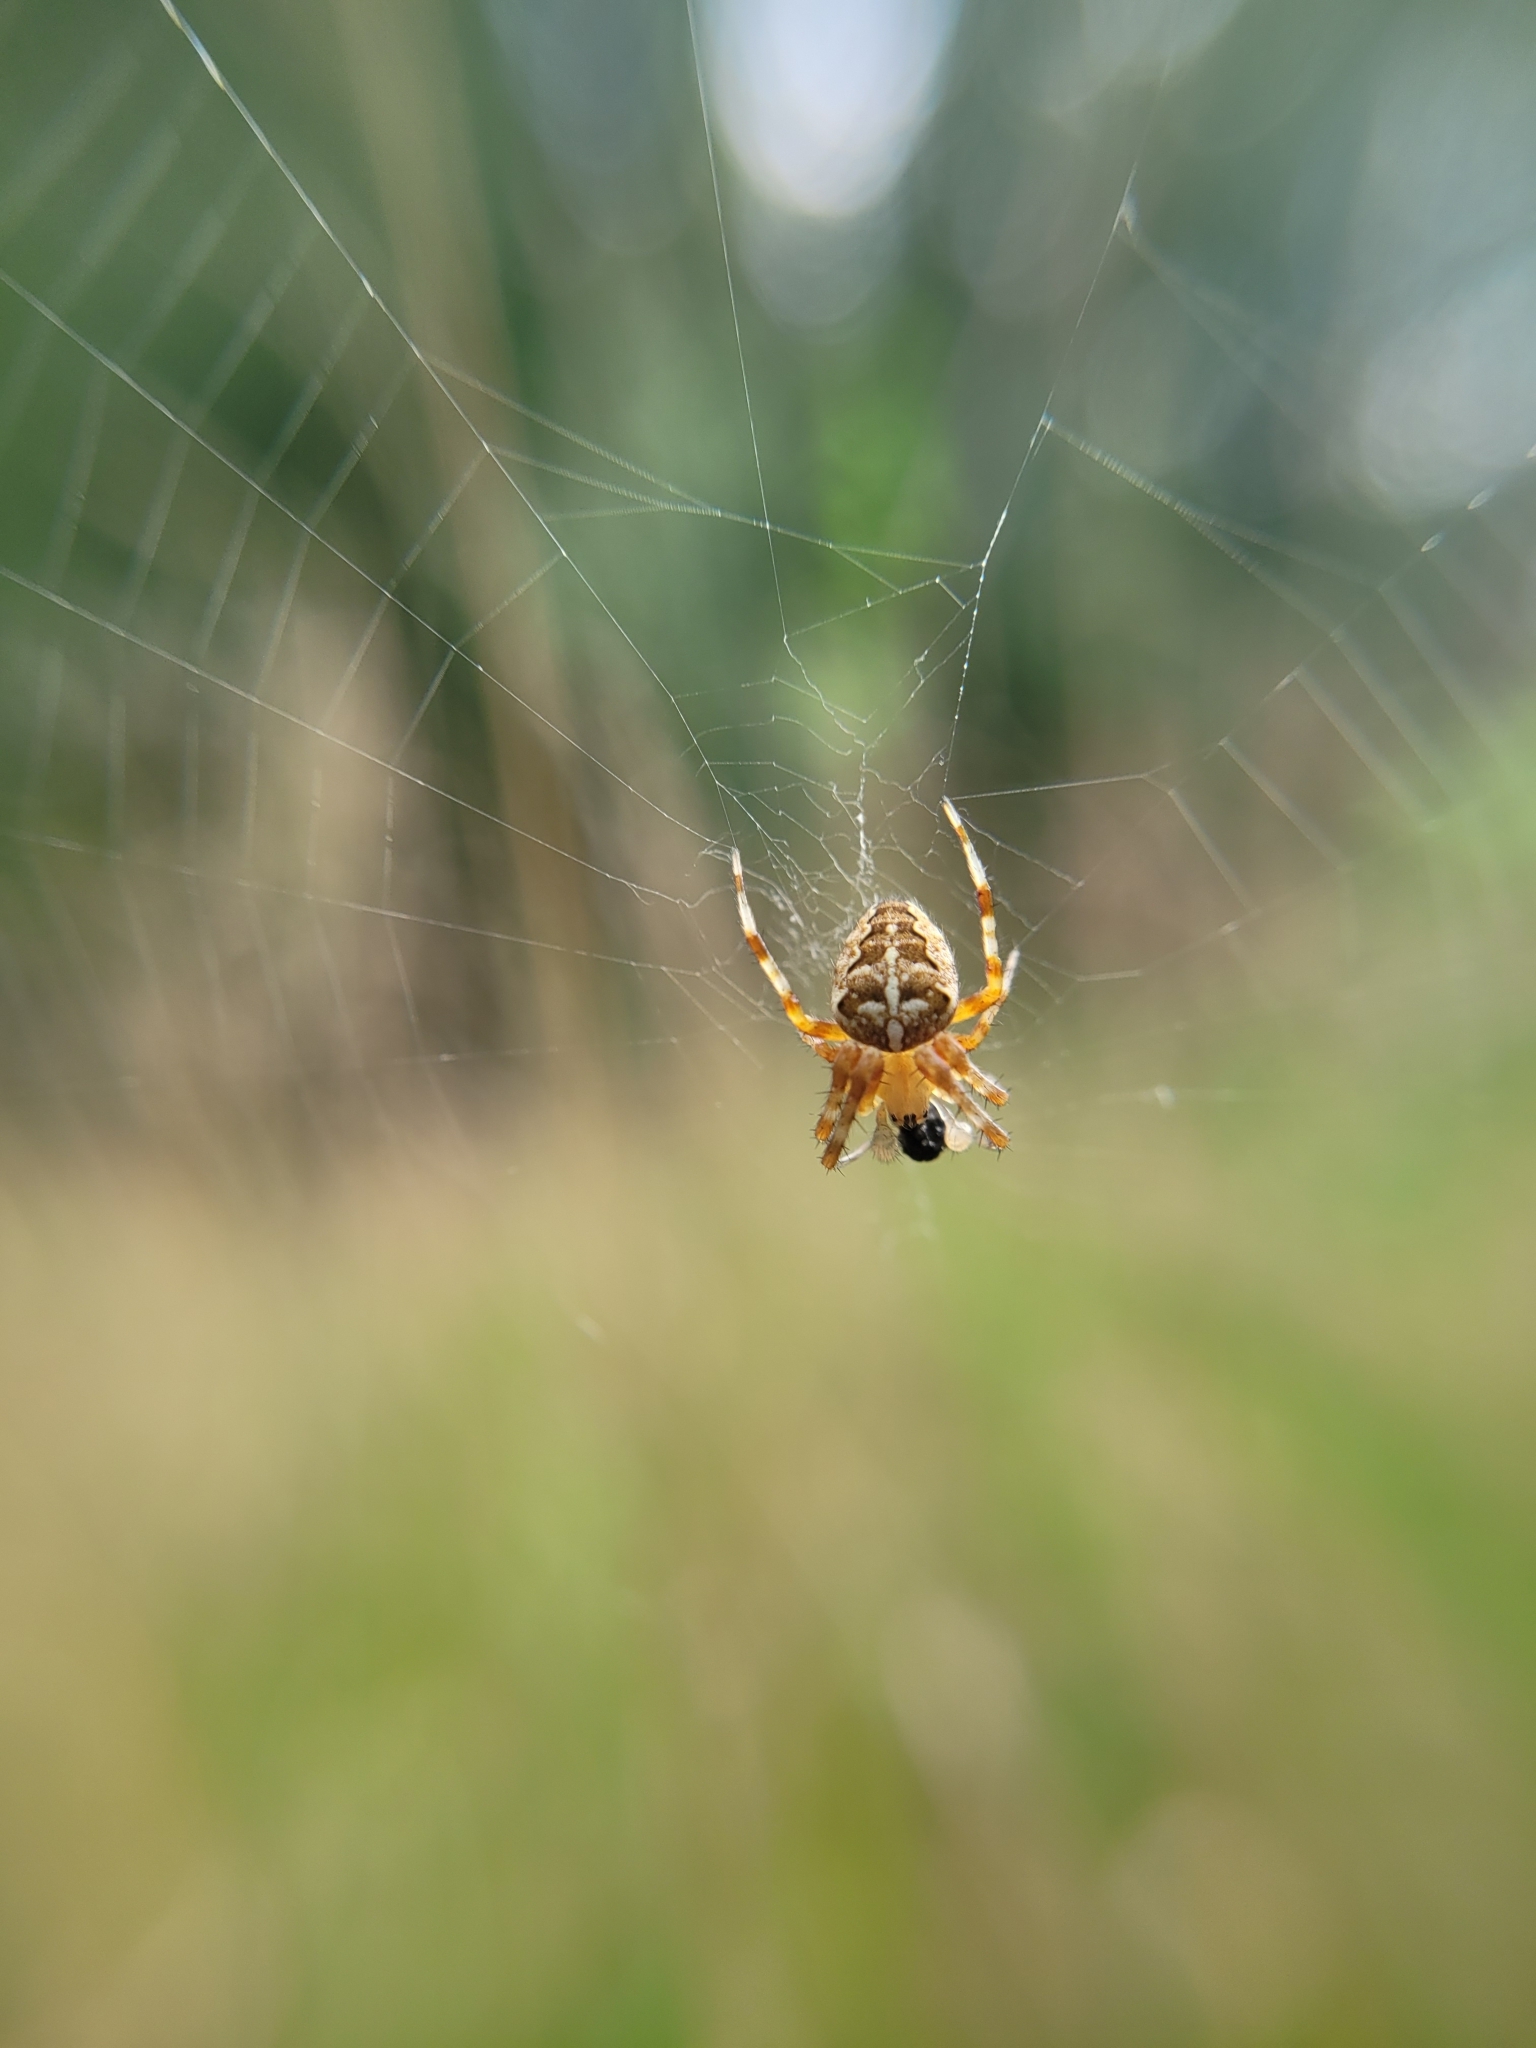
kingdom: Animalia
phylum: Arthropoda
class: Arachnida
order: Araneae
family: Araneidae
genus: Araneus
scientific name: Araneus diadematus
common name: Cross orbweaver
